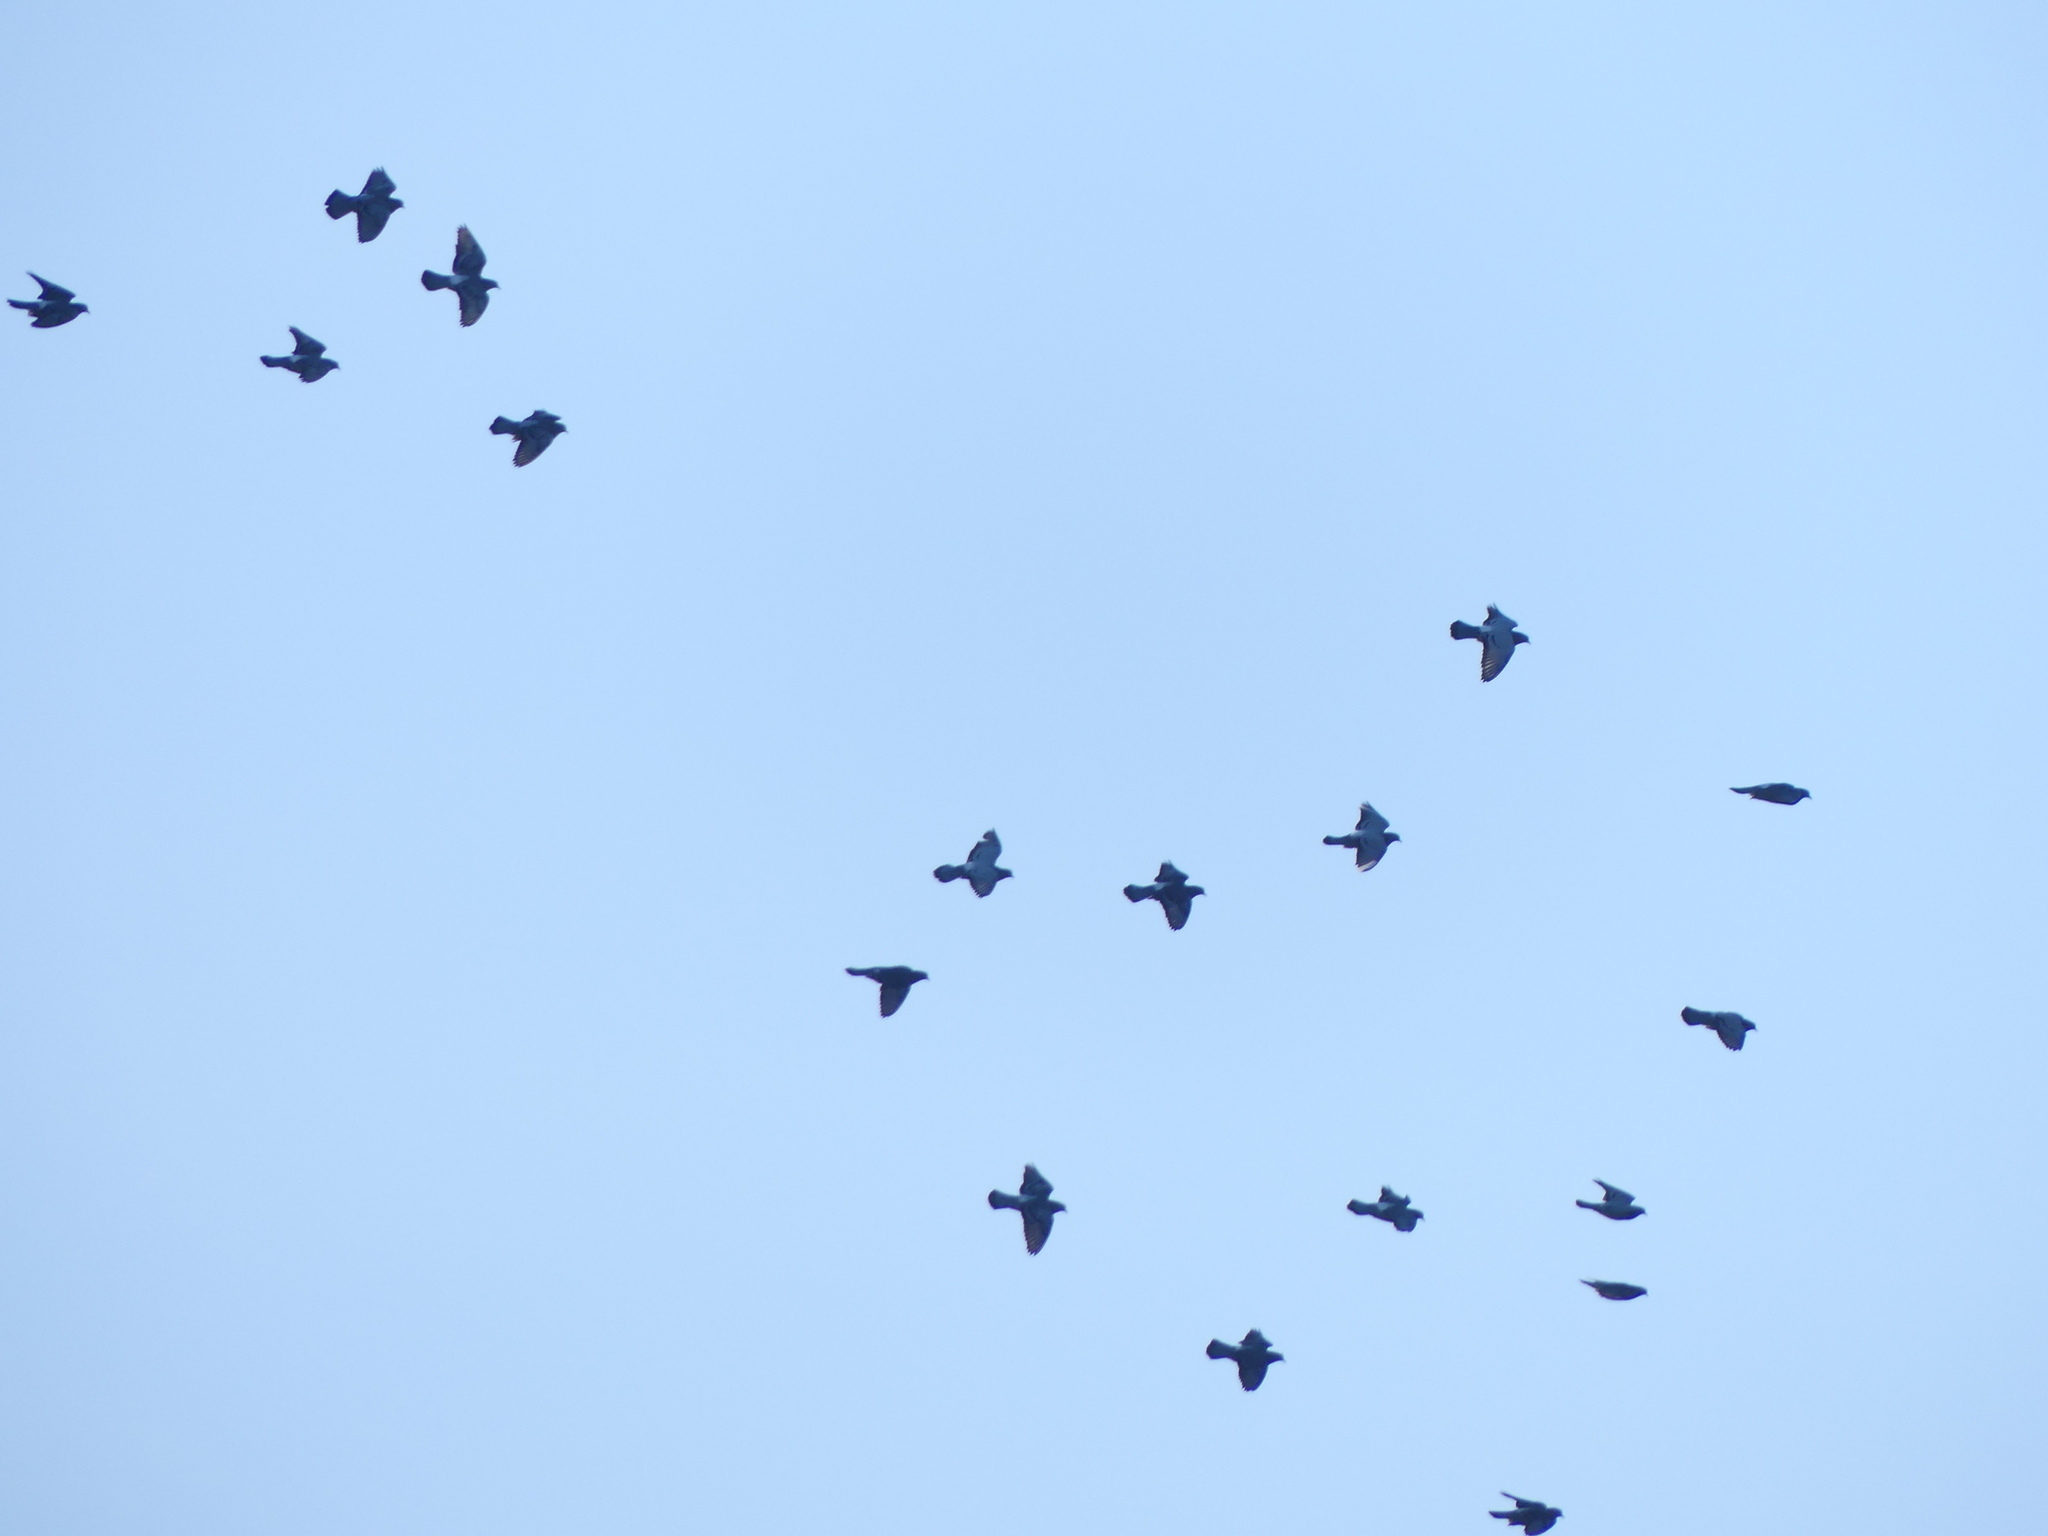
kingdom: Animalia
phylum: Chordata
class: Aves
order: Columbiformes
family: Columbidae
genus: Columba
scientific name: Columba livia
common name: Rock pigeon
